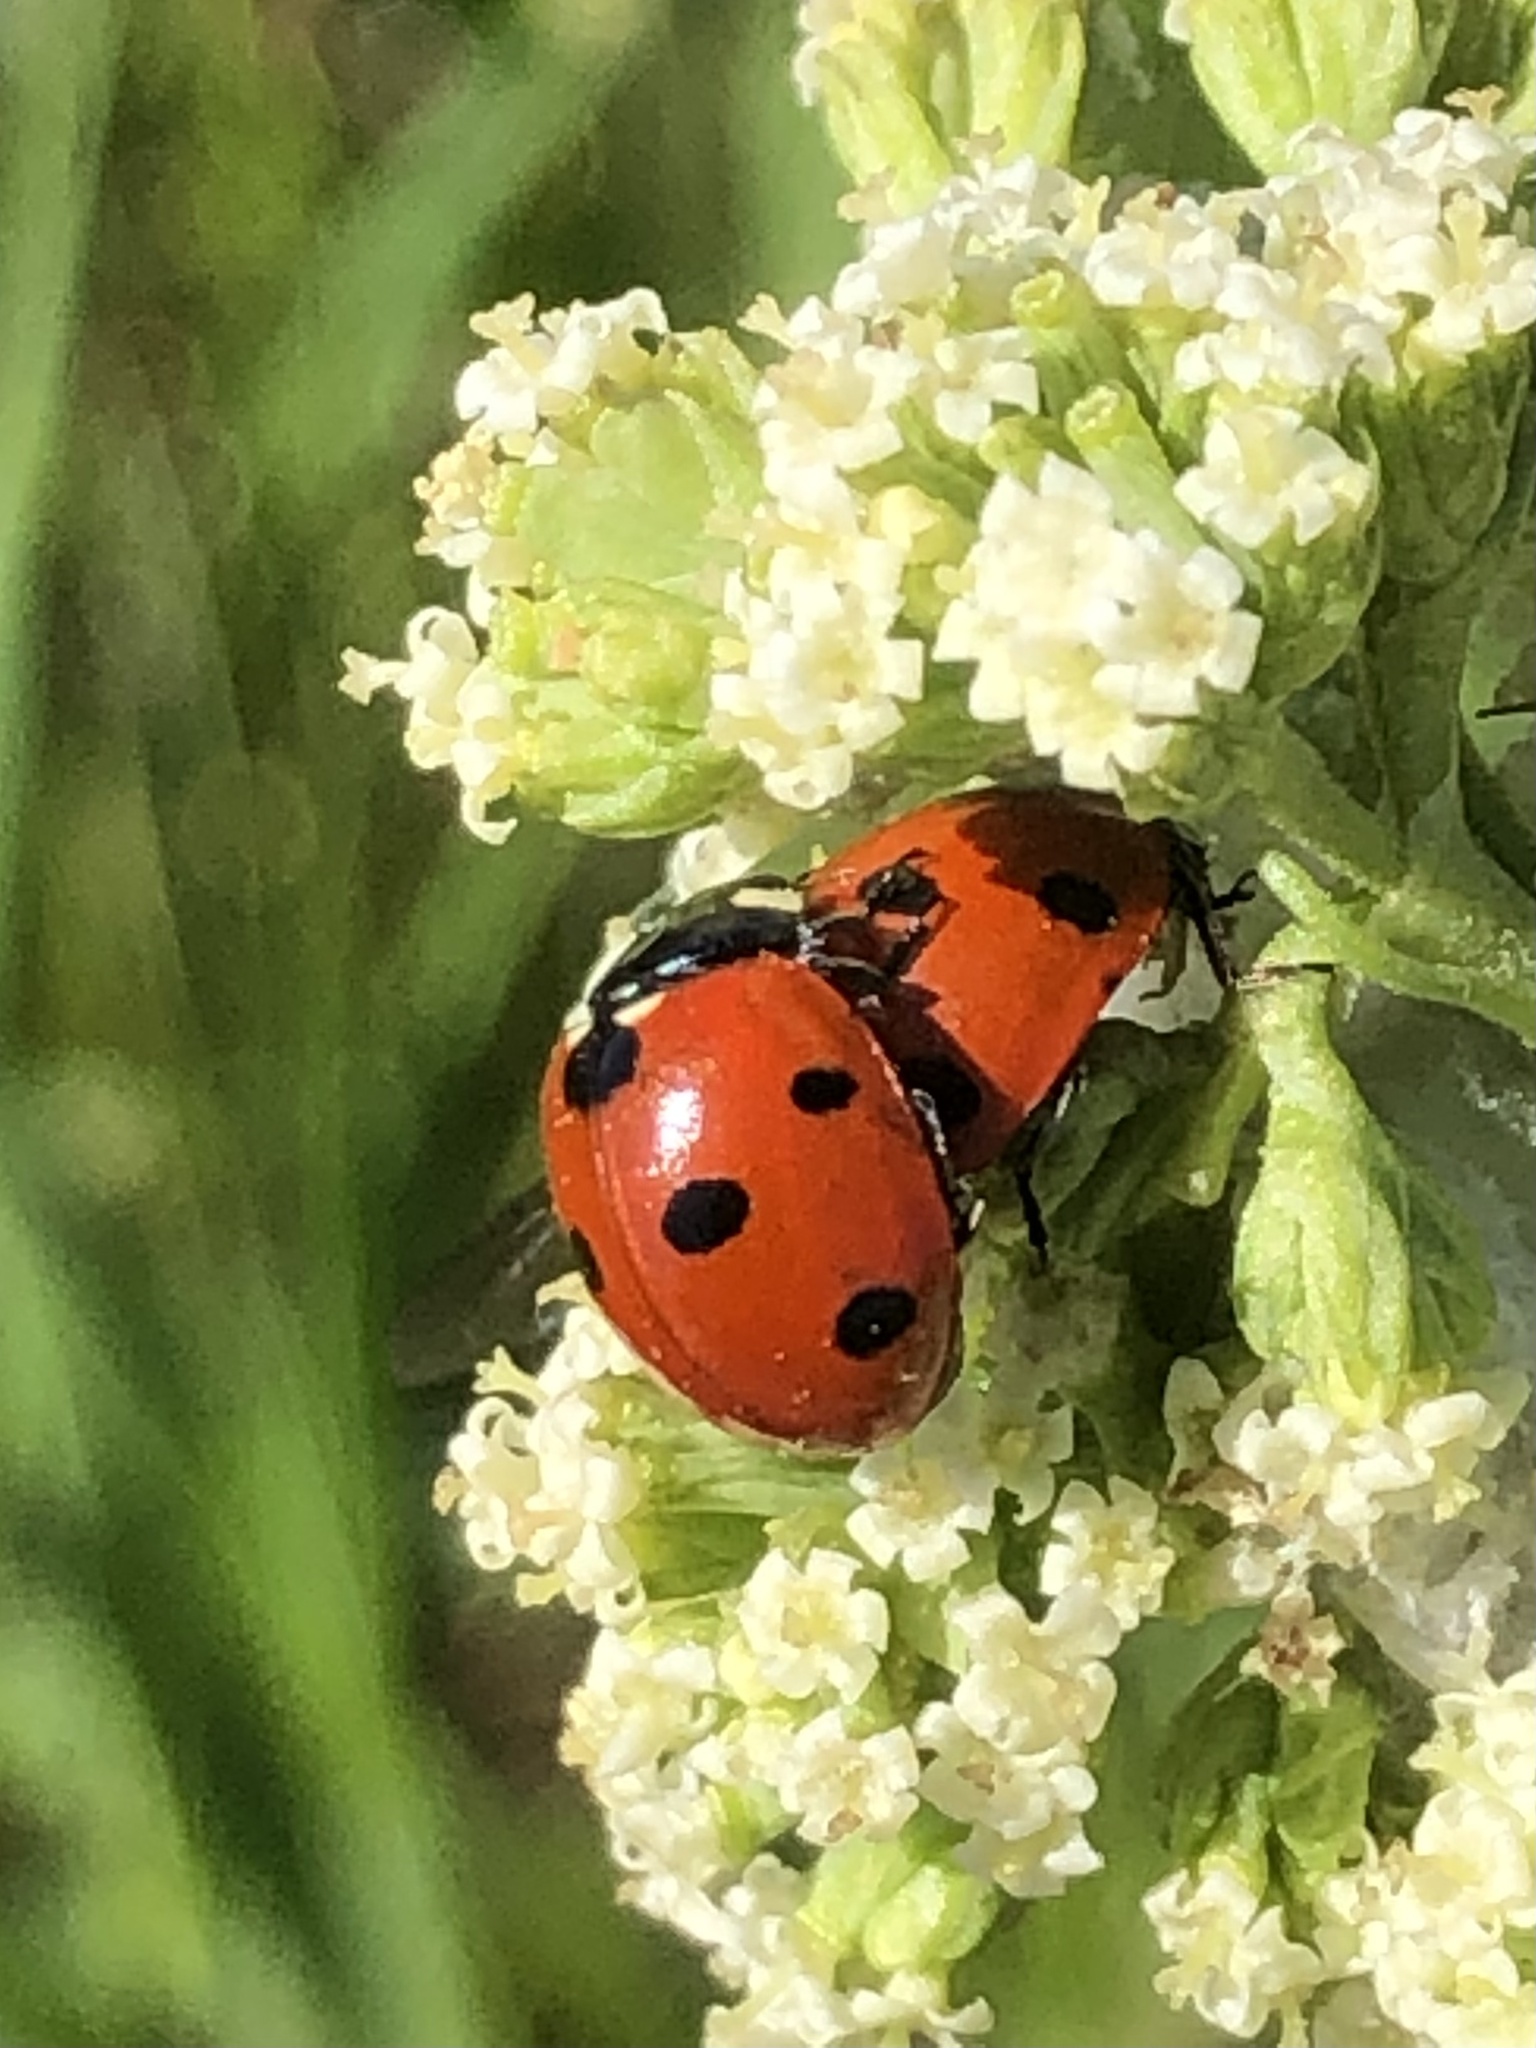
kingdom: Animalia
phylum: Arthropoda
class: Insecta
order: Coleoptera
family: Coccinellidae
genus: Coccinella
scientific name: Coccinella septempunctata
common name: Sevenspotted lady beetle
